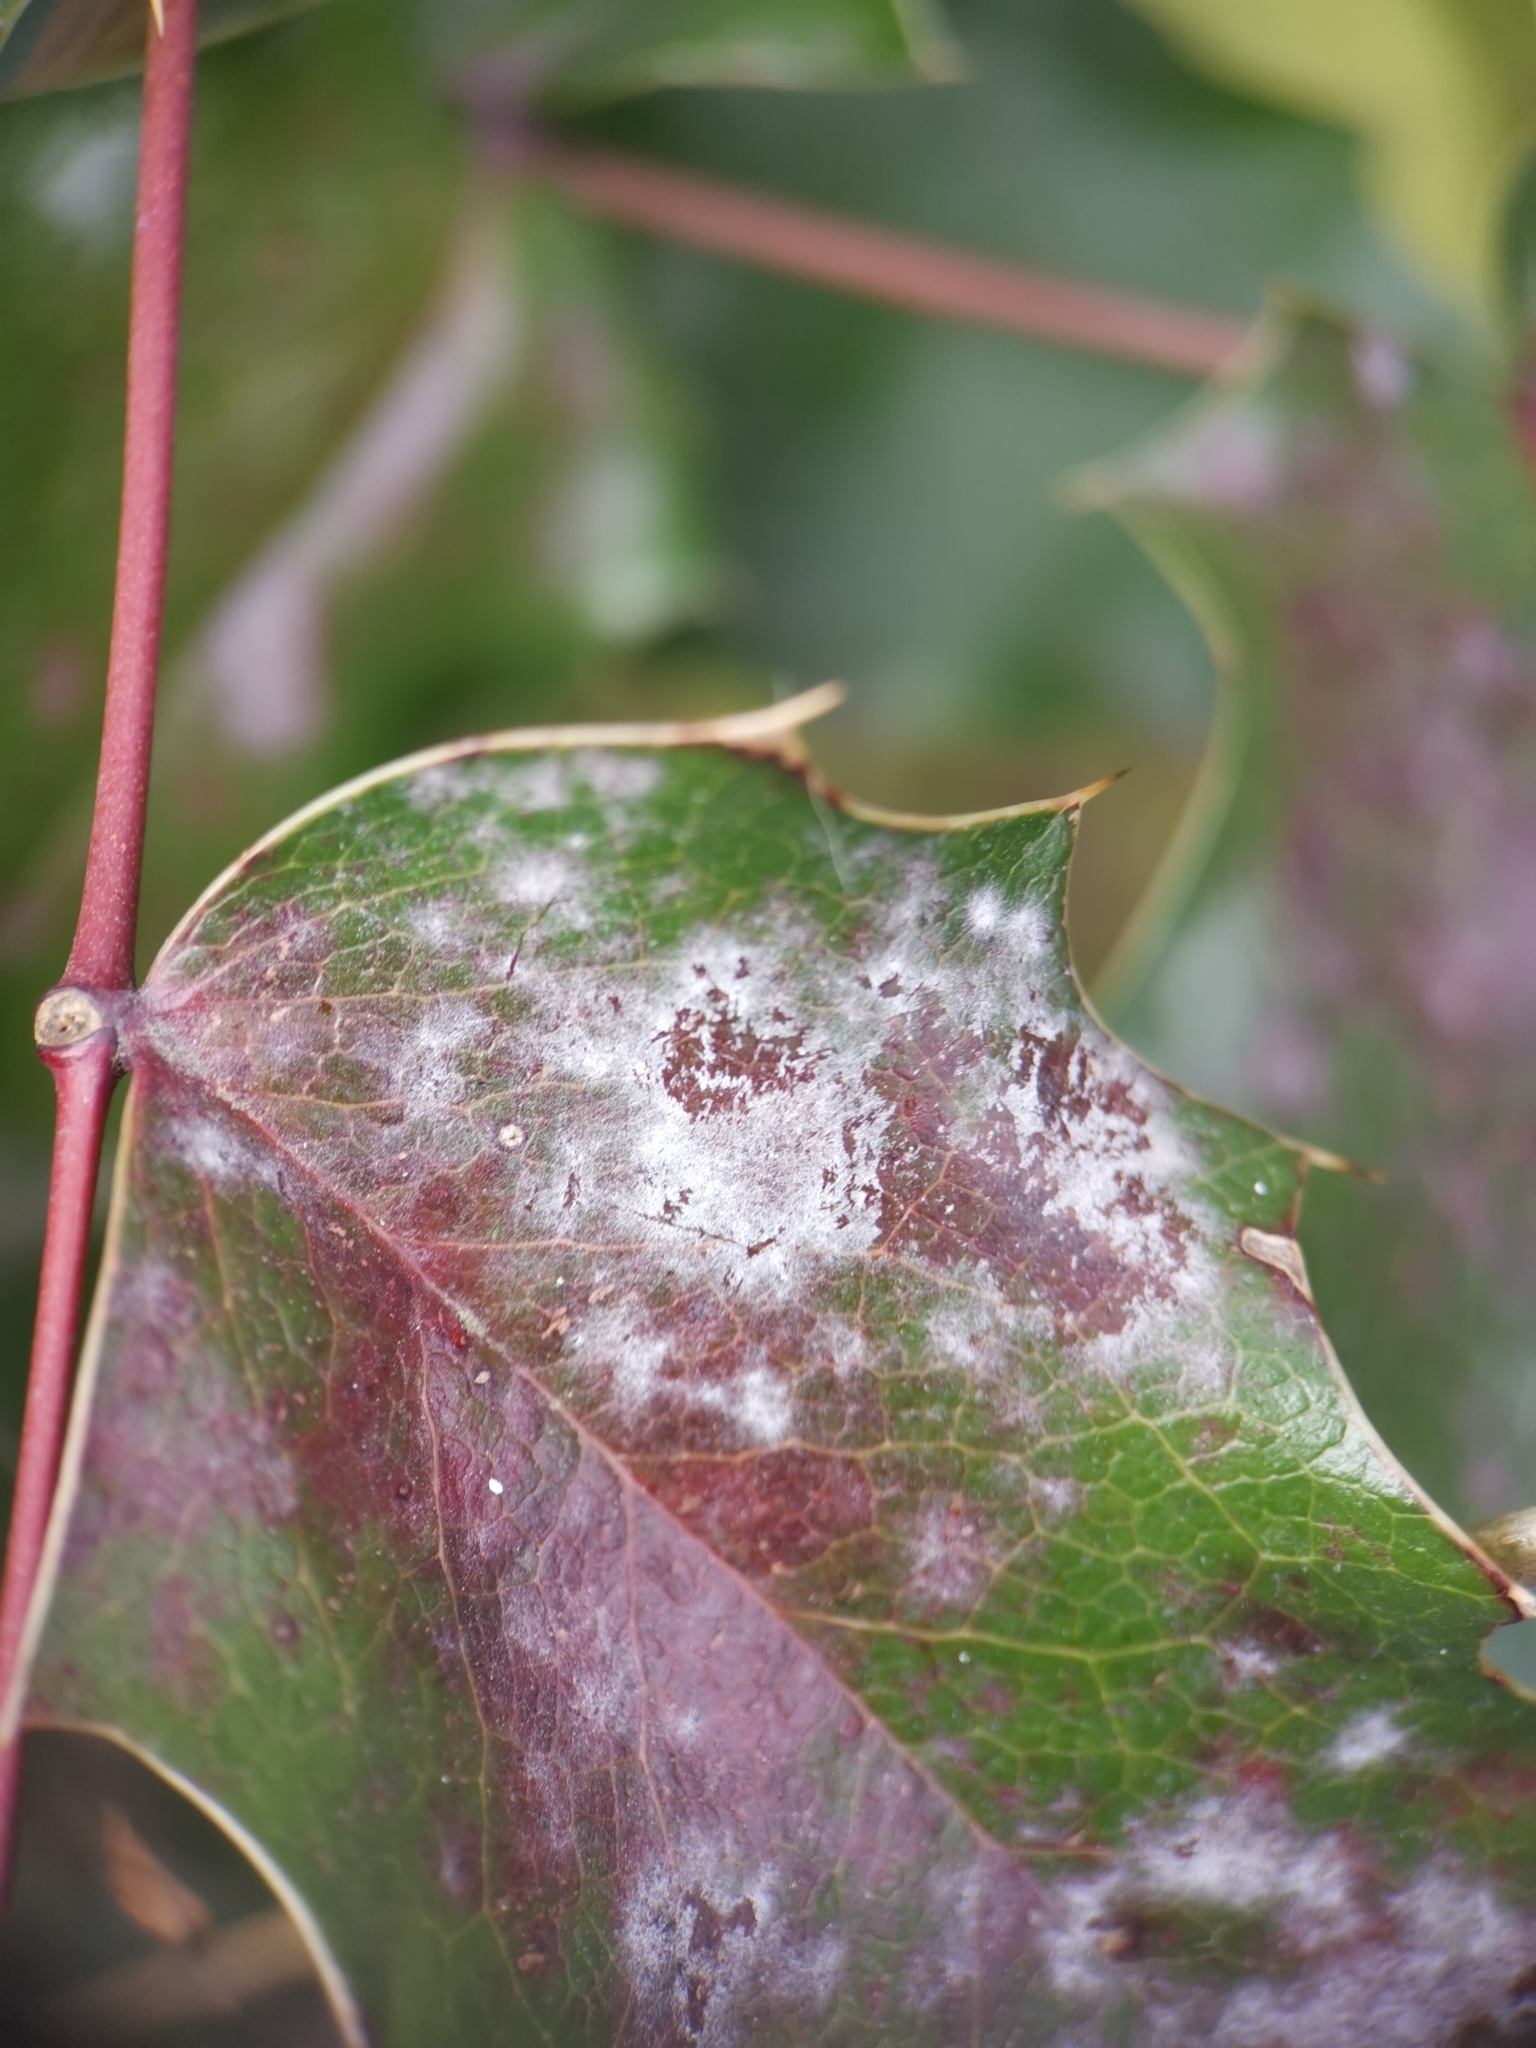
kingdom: Fungi
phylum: Ascomycota
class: Leotiomycetes
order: Helotiales
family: Erysiphaceae
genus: Erysiphe
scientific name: Erysiphe berberidis
